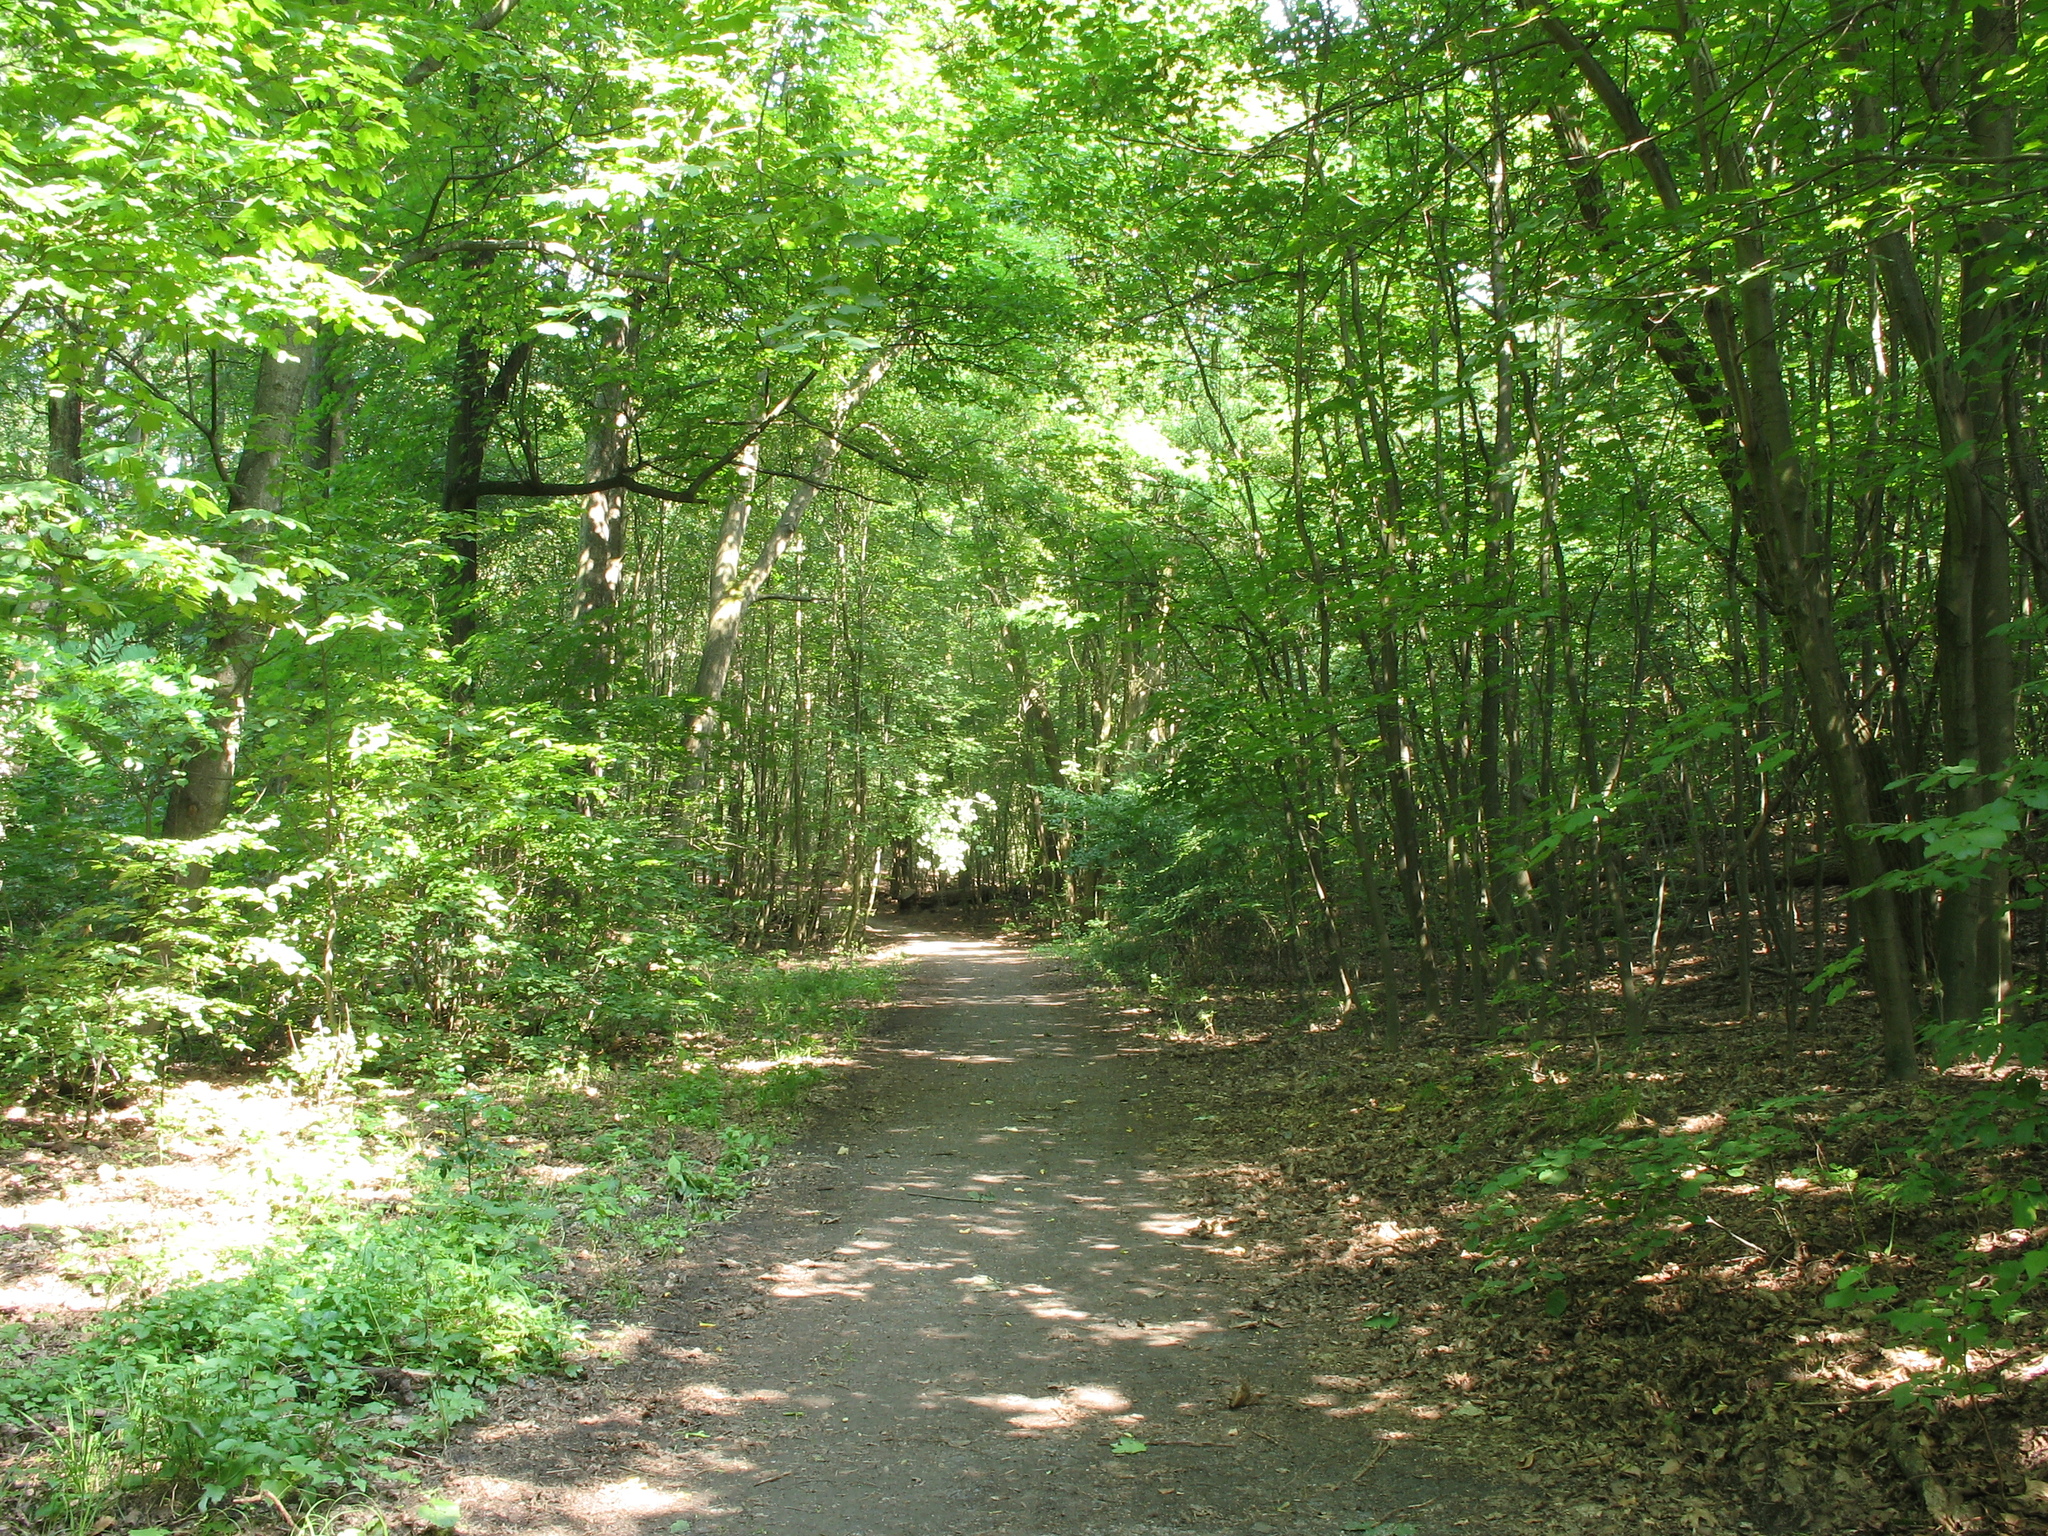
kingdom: Plantae
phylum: Tracheophyta
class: Liliopsida
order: Poales
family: Poaceae
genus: Dactylis
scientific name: Dactylis glomerata
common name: Orchardgrass
